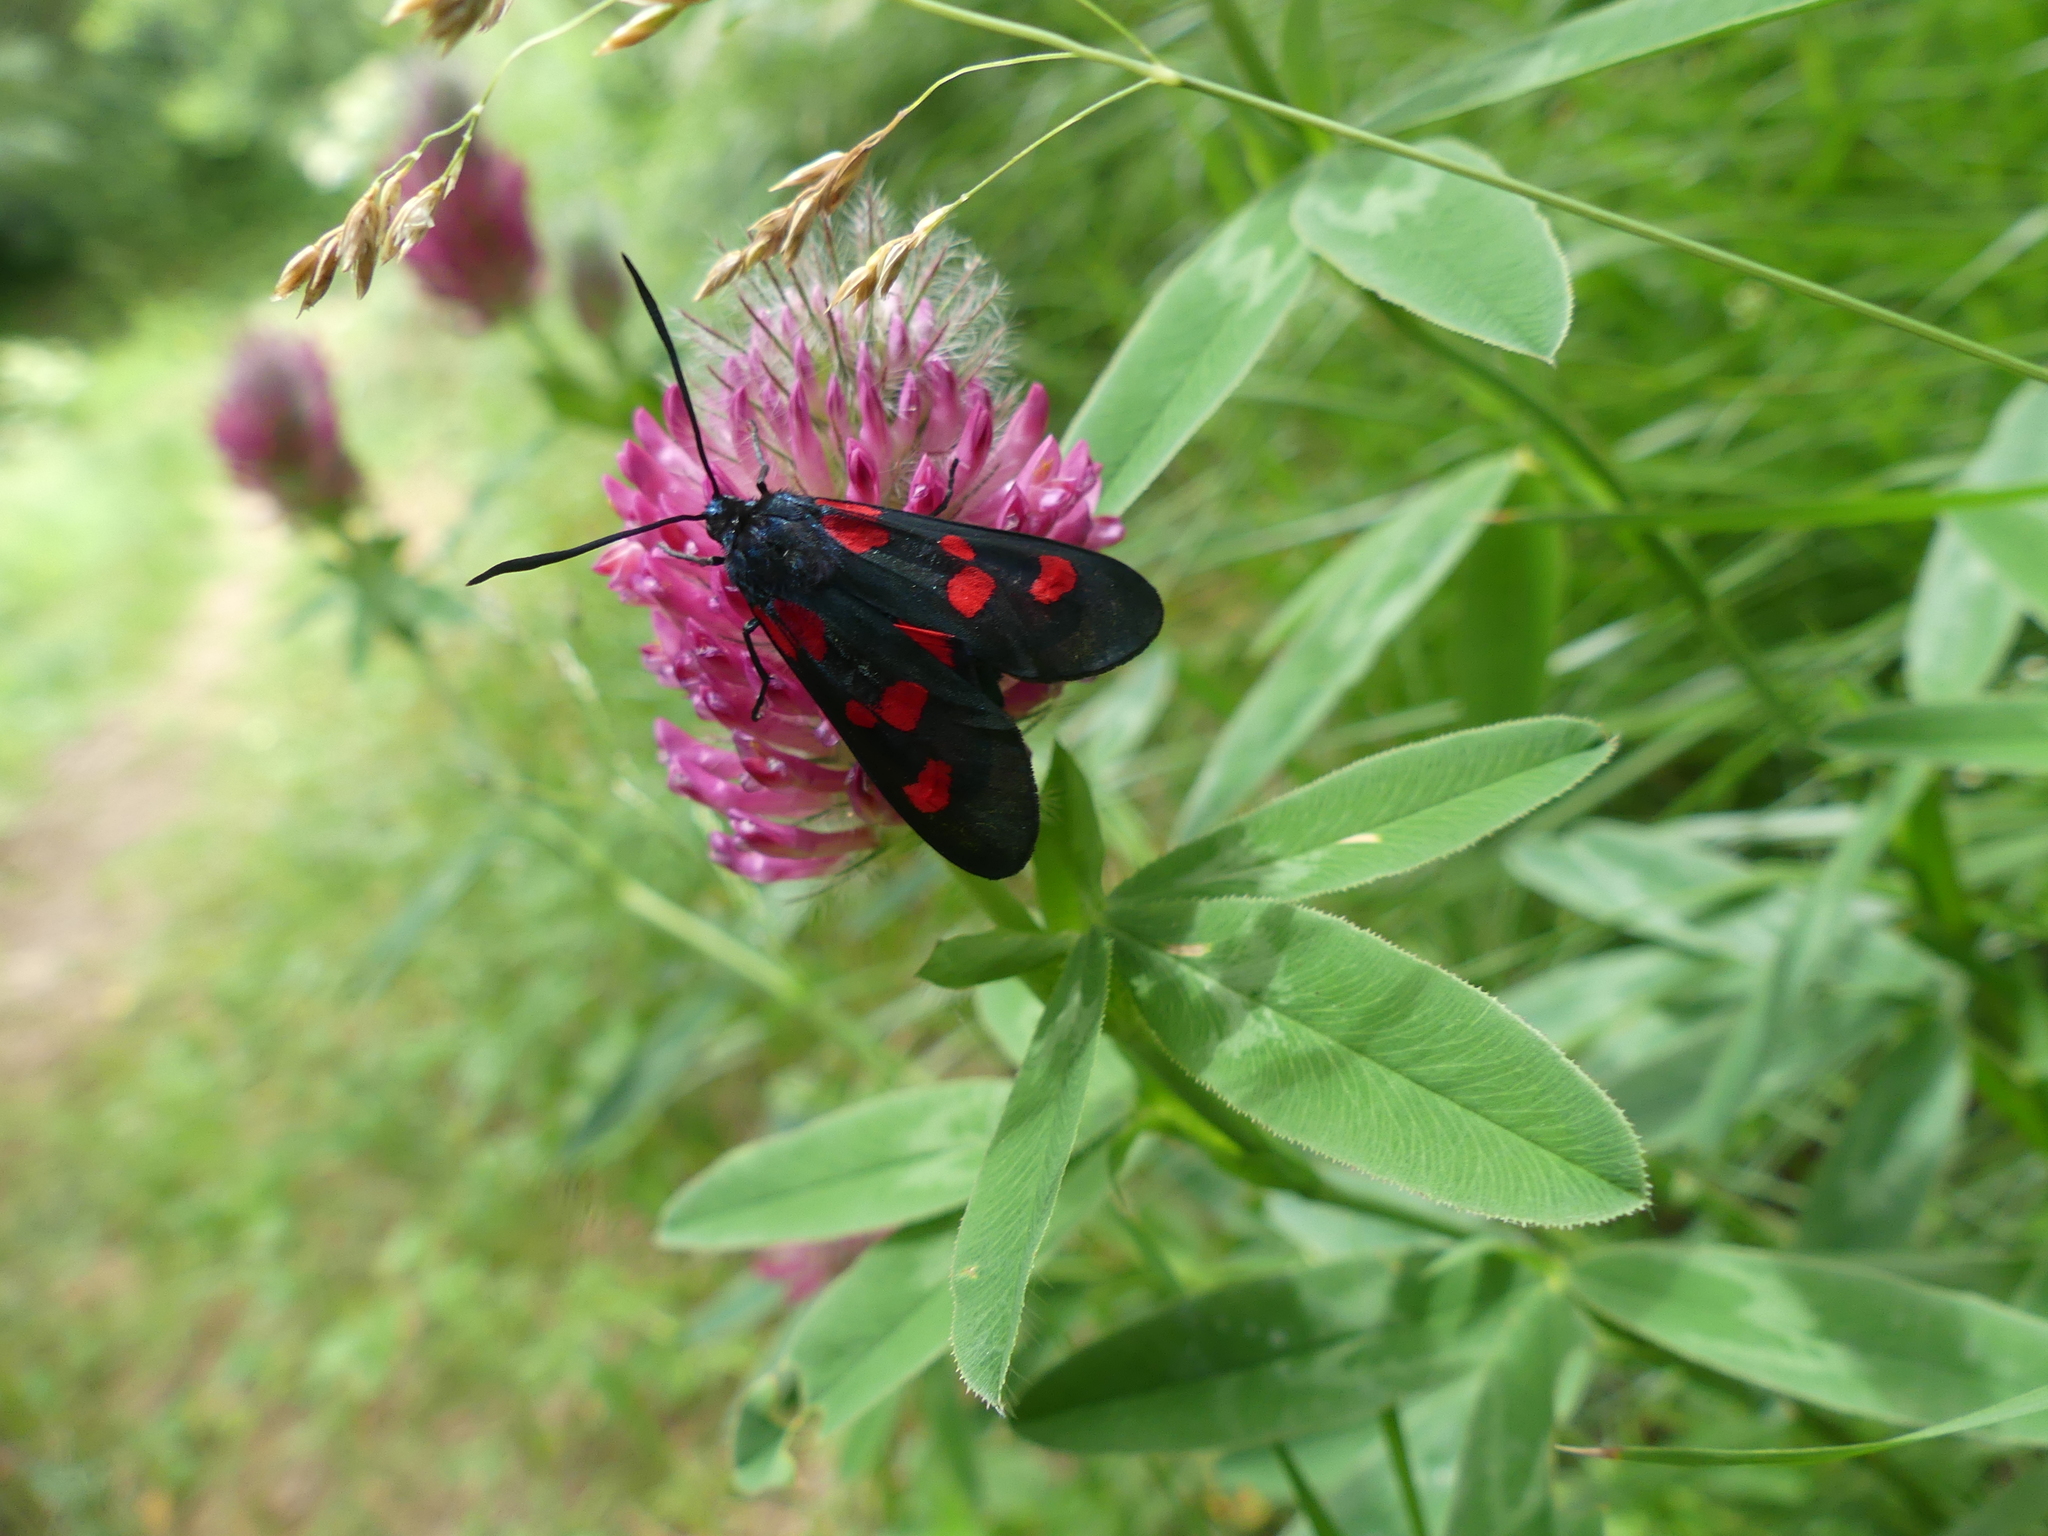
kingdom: Animalia
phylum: Arthropoda
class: Insecta
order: Lepidoptera
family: Zygaenidae
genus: Zygaena
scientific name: Zygaena lonicerae
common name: Narrow-bordered five-spot burnet
